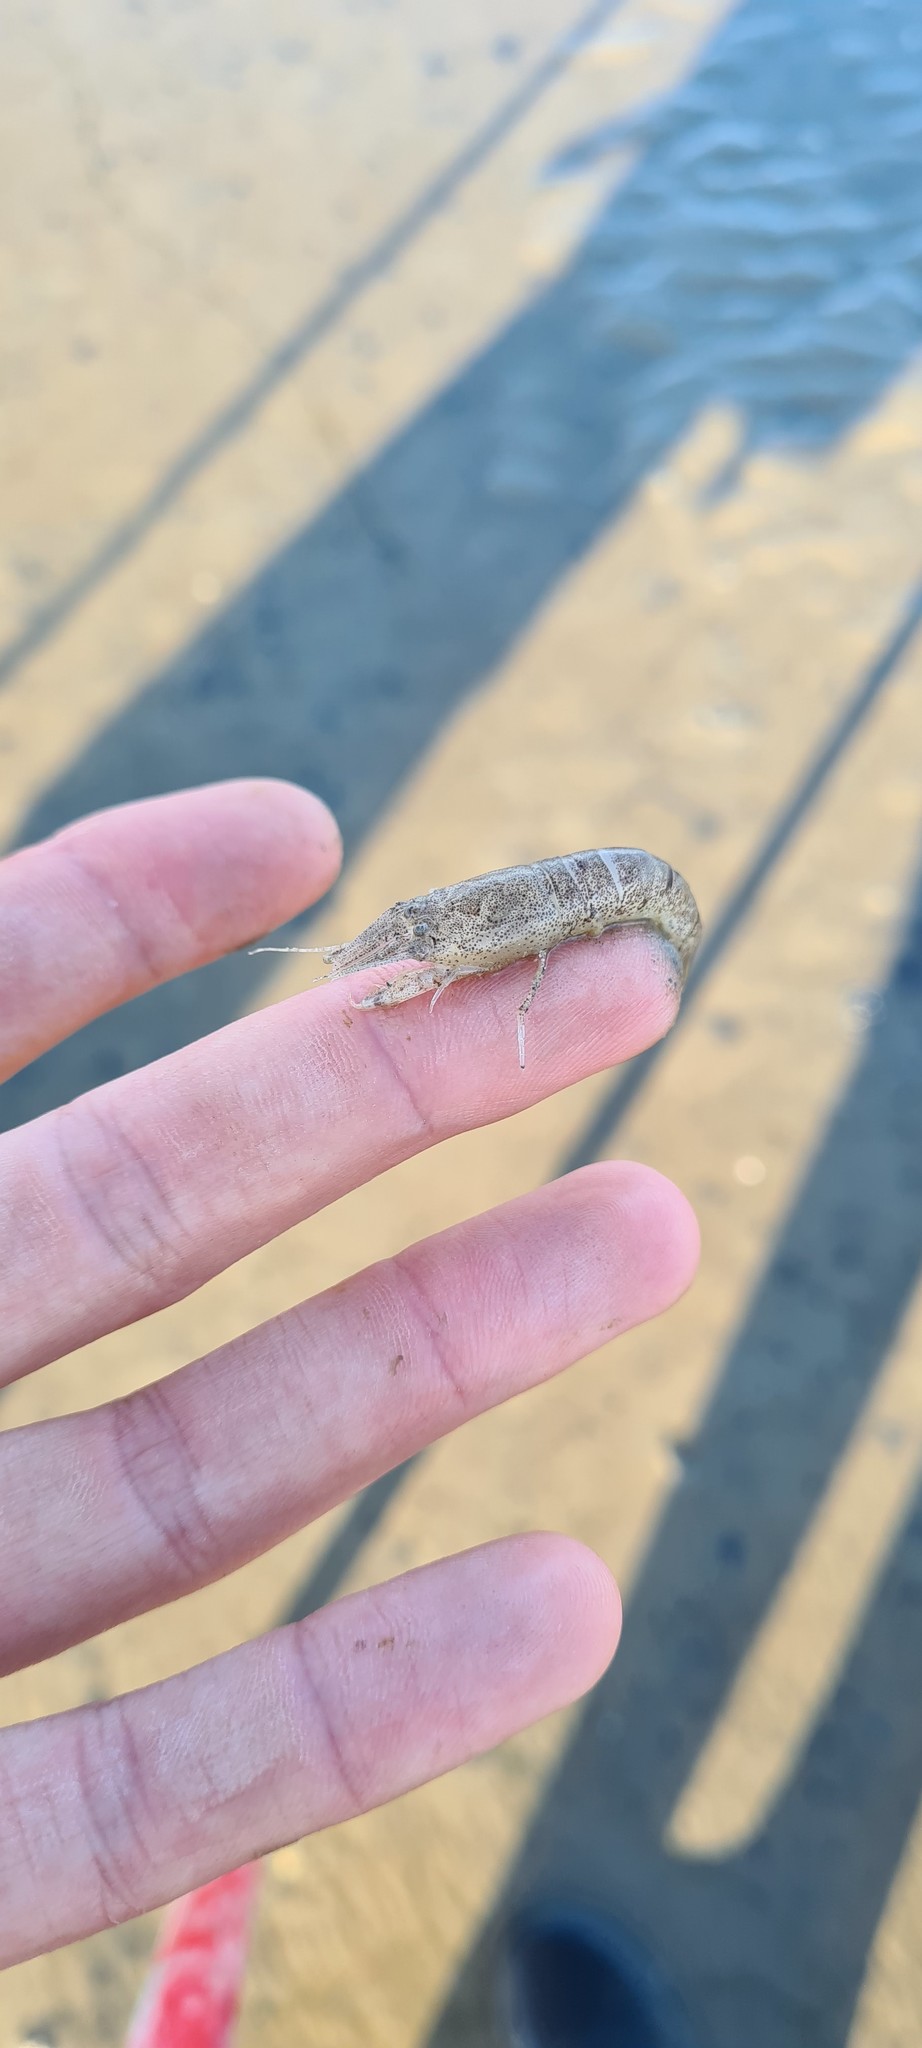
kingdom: Animalia
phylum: Arthropoda
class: Malacostraca
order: Decapoda
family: Crangonidae
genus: Crangon
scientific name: Crangon crangon
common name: Brown shrimp
